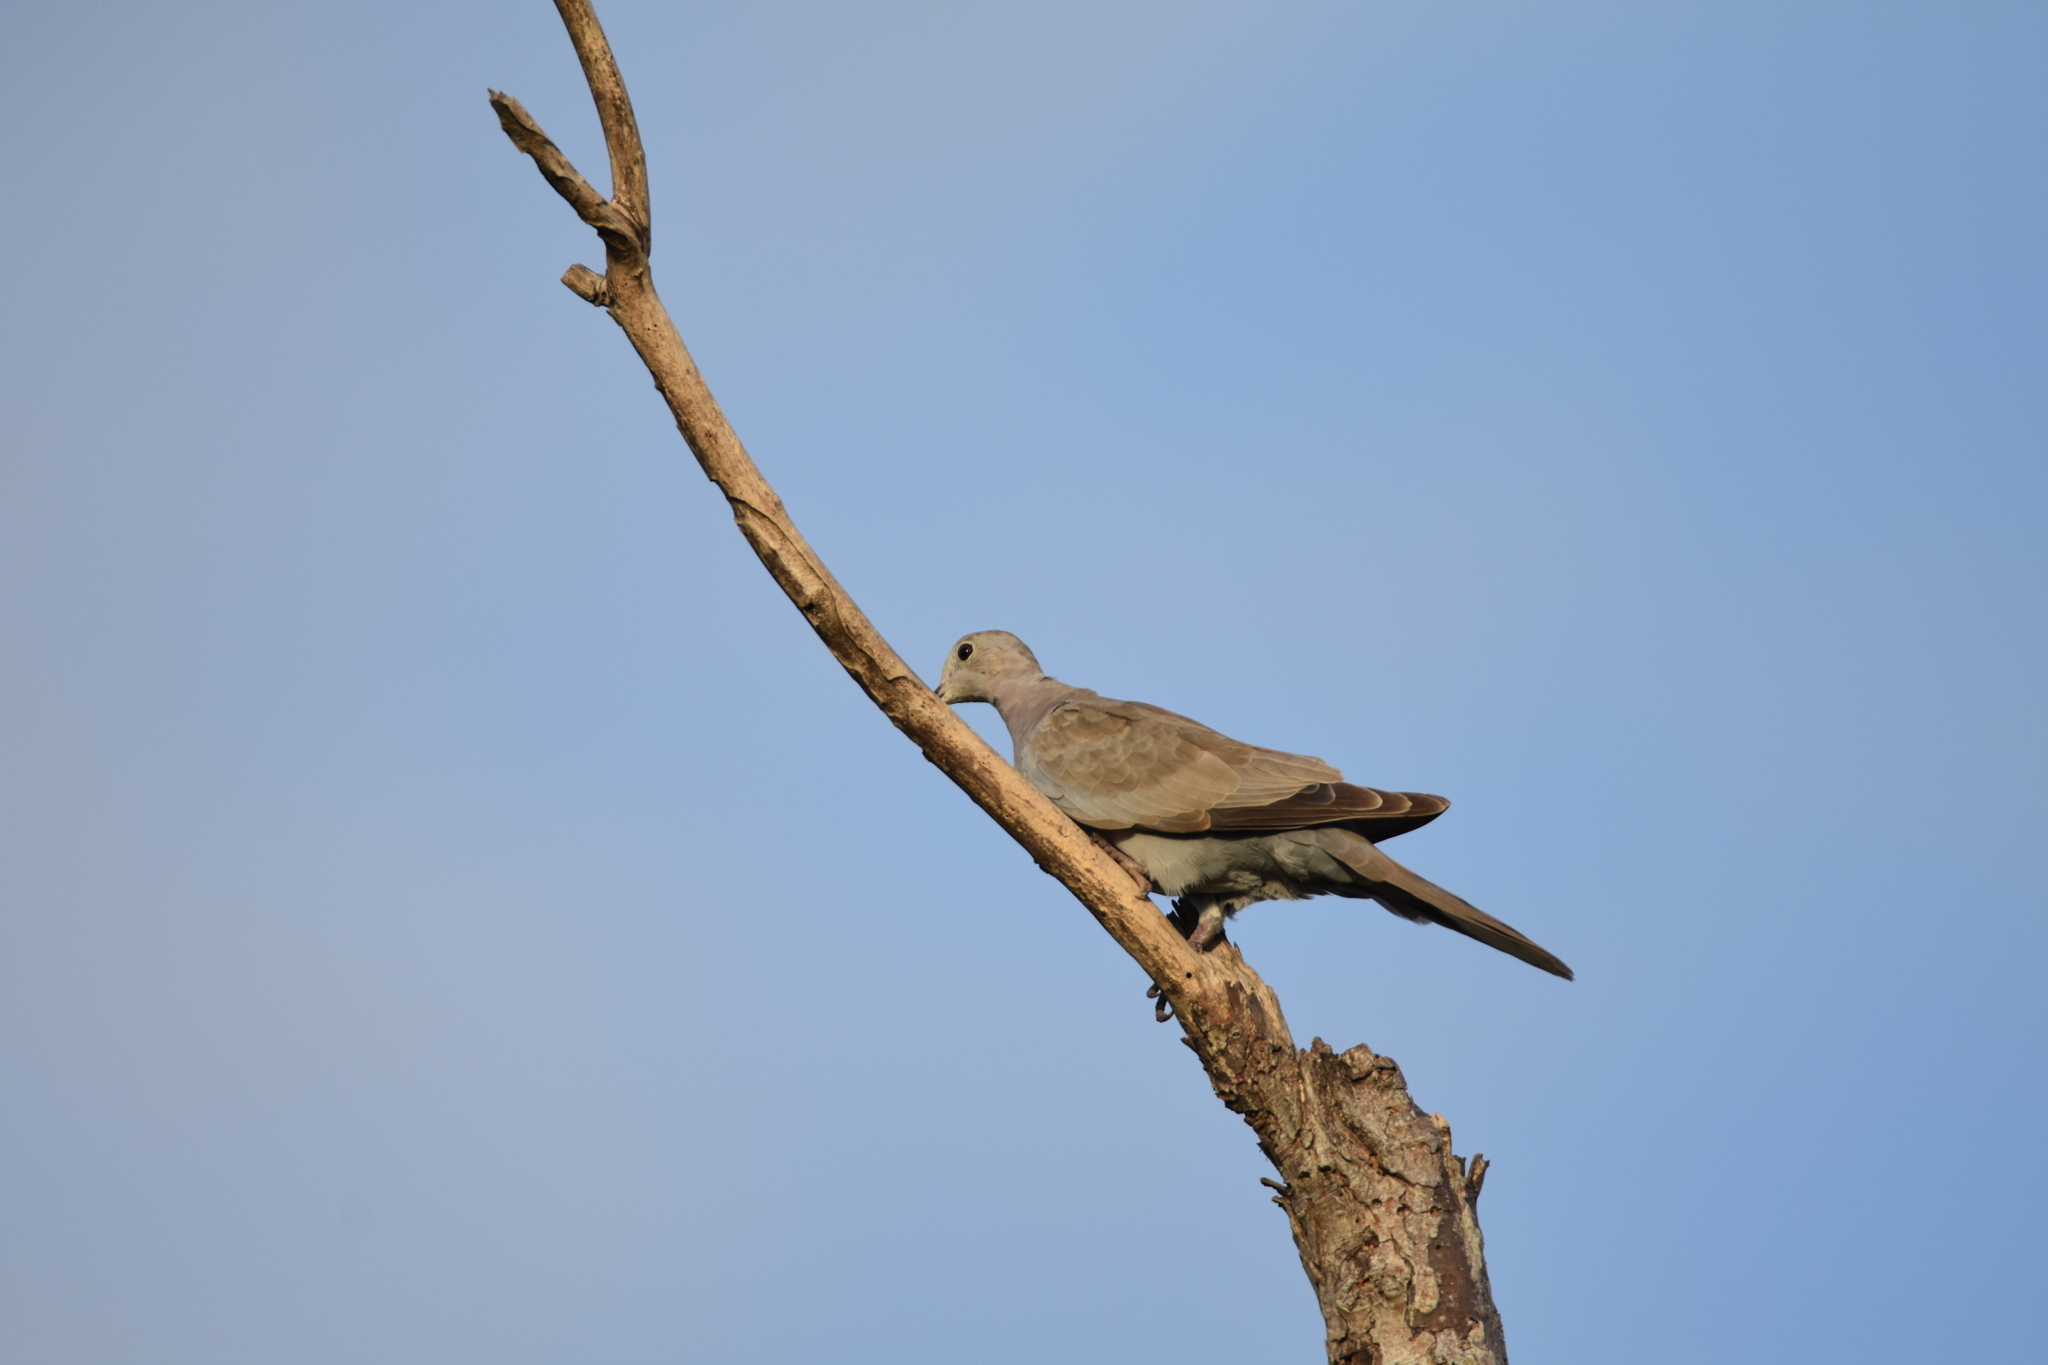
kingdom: Animalia
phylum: Chordata
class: Aves
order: Columbiformes
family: Columbidae
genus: Streptopelia
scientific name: Streptopelia decaocto
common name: Eurasian collared dove
